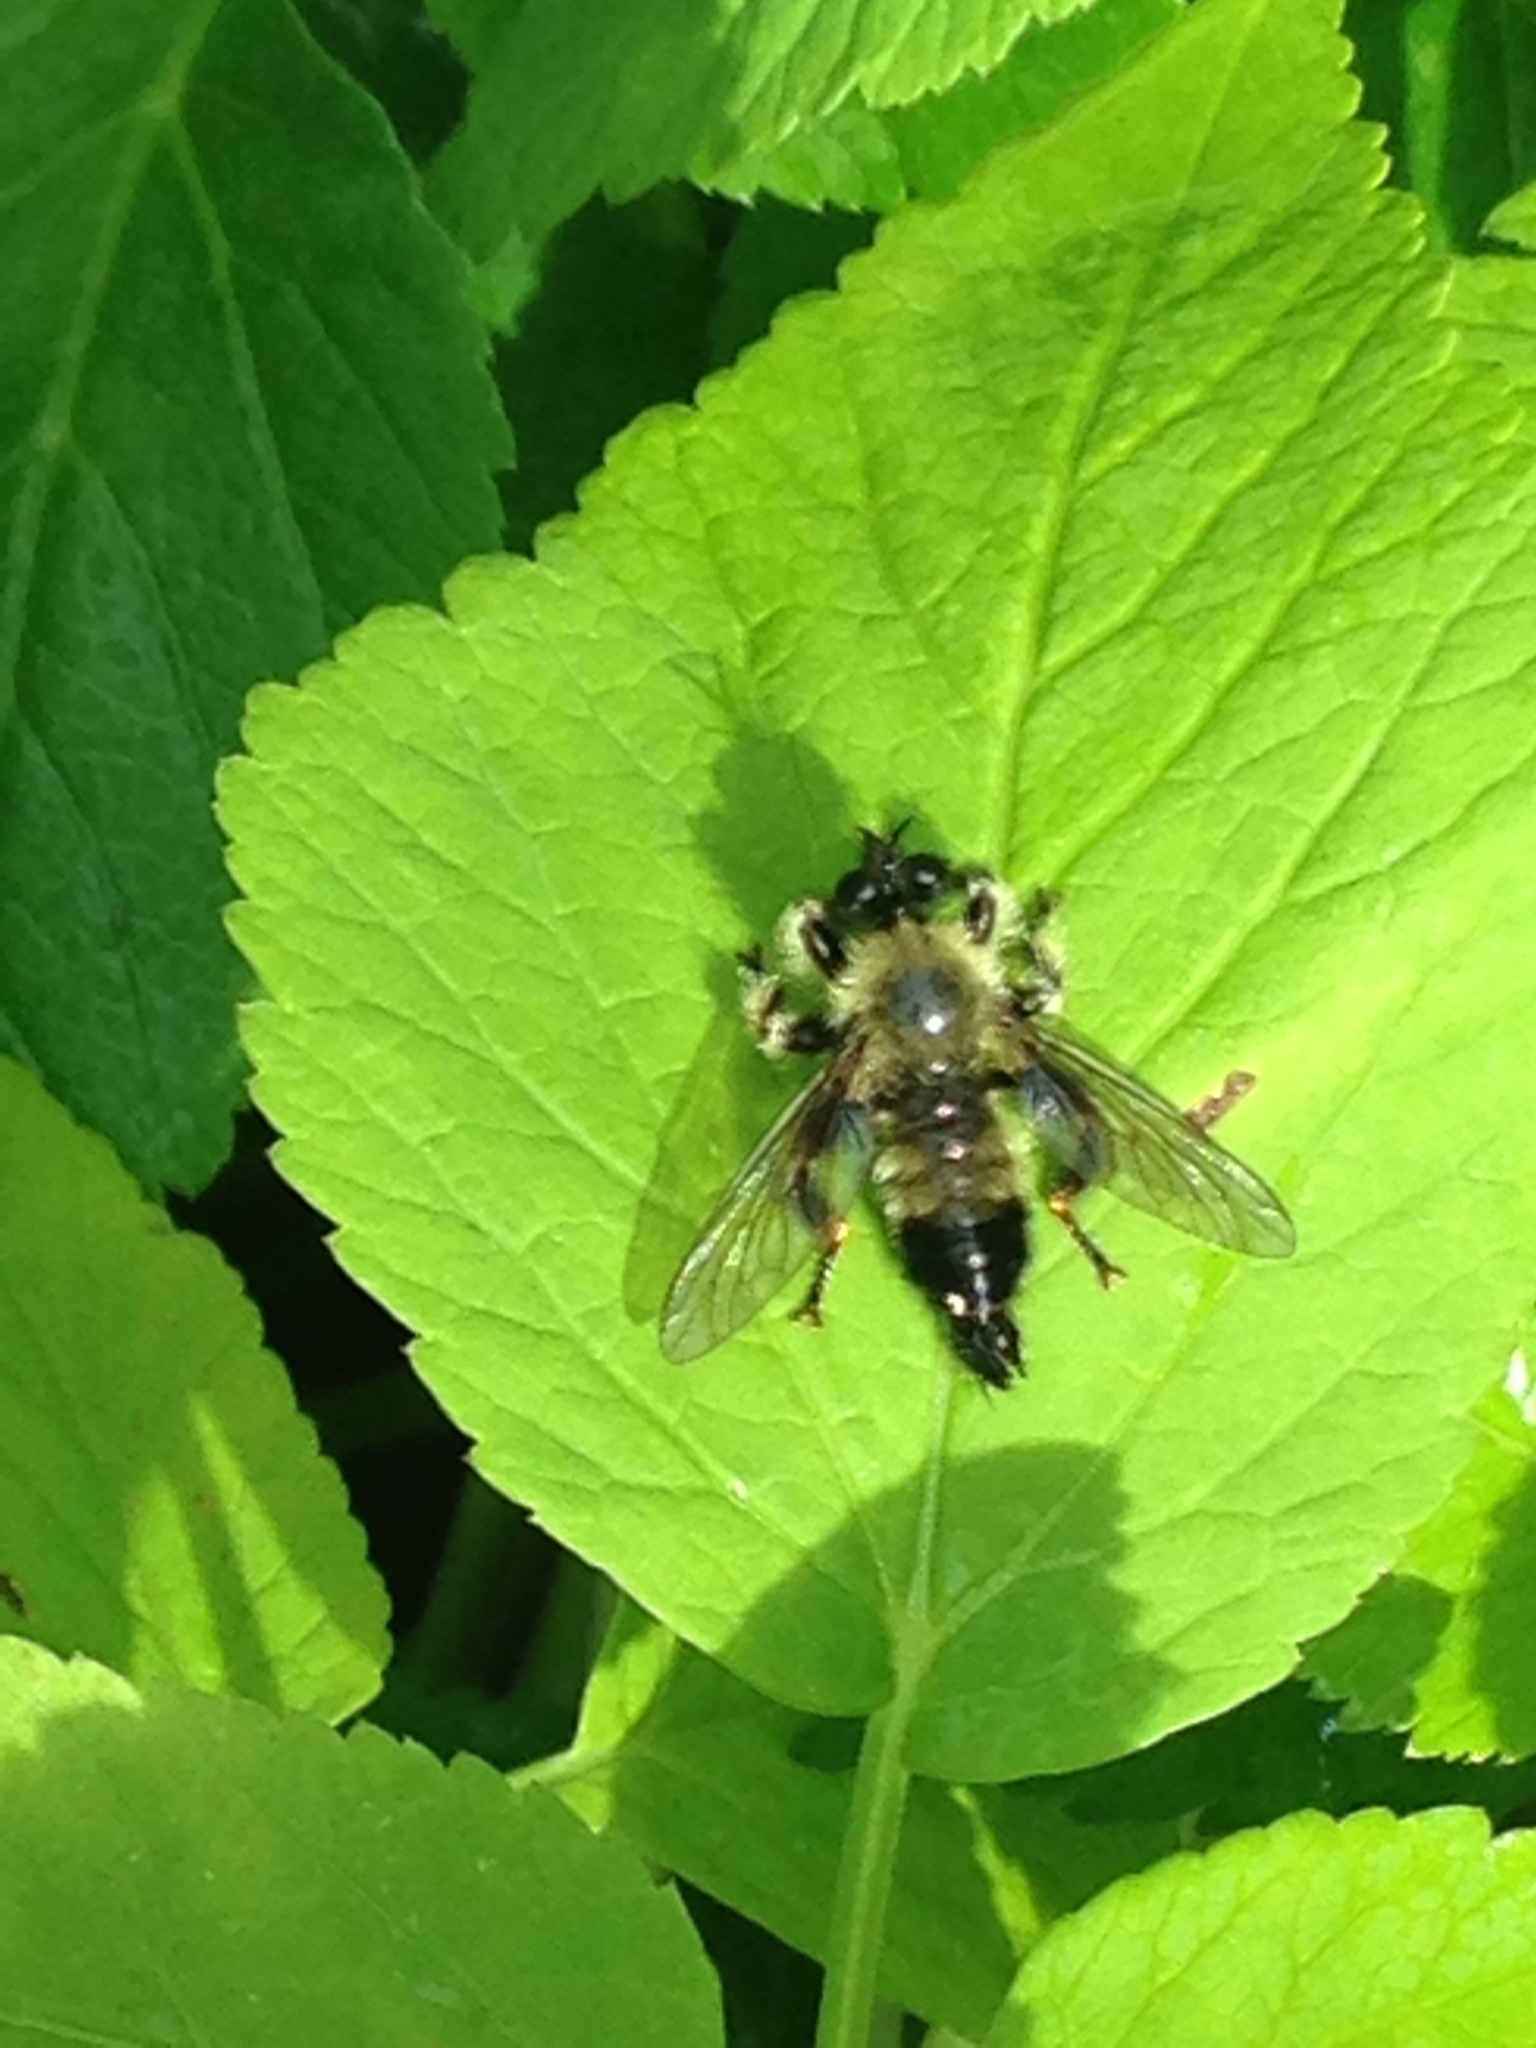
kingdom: Animalia
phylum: Arthropoda
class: Insecta
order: Diptera
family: Asilidae
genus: Laphria
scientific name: Laphria sacrator
